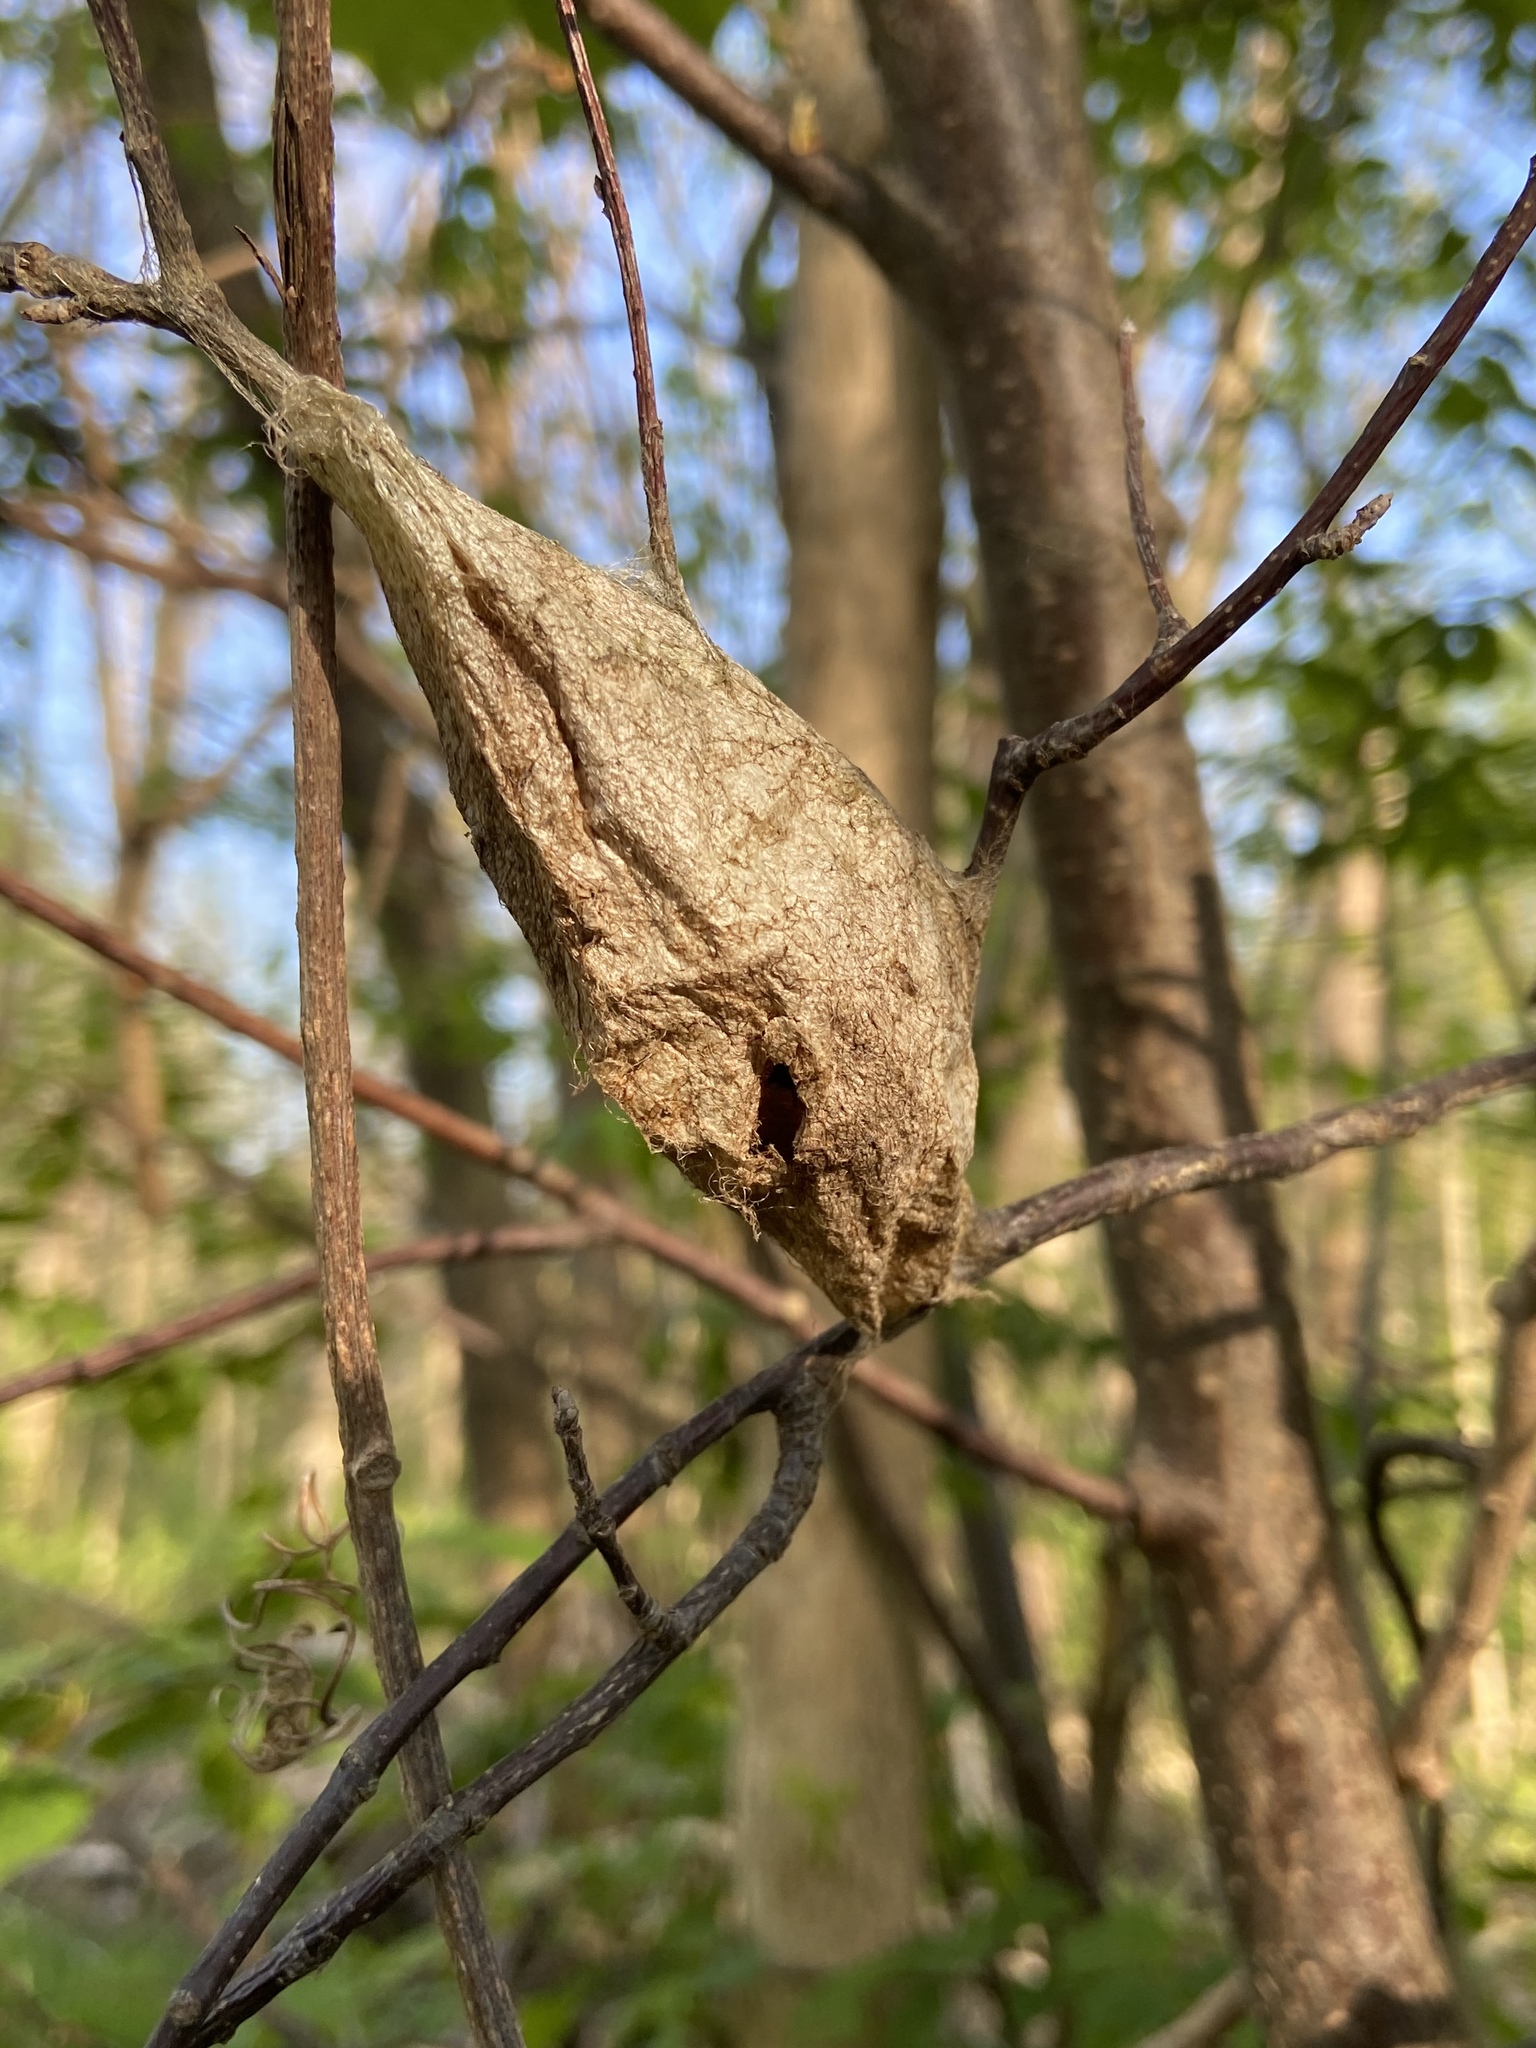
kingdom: Animalia
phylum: Arthropoda
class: Insecta
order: Lepidoptera
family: Saturniidae
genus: Hyalophora
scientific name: Hyalophora cecropia
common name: Cecropia silkmoth
